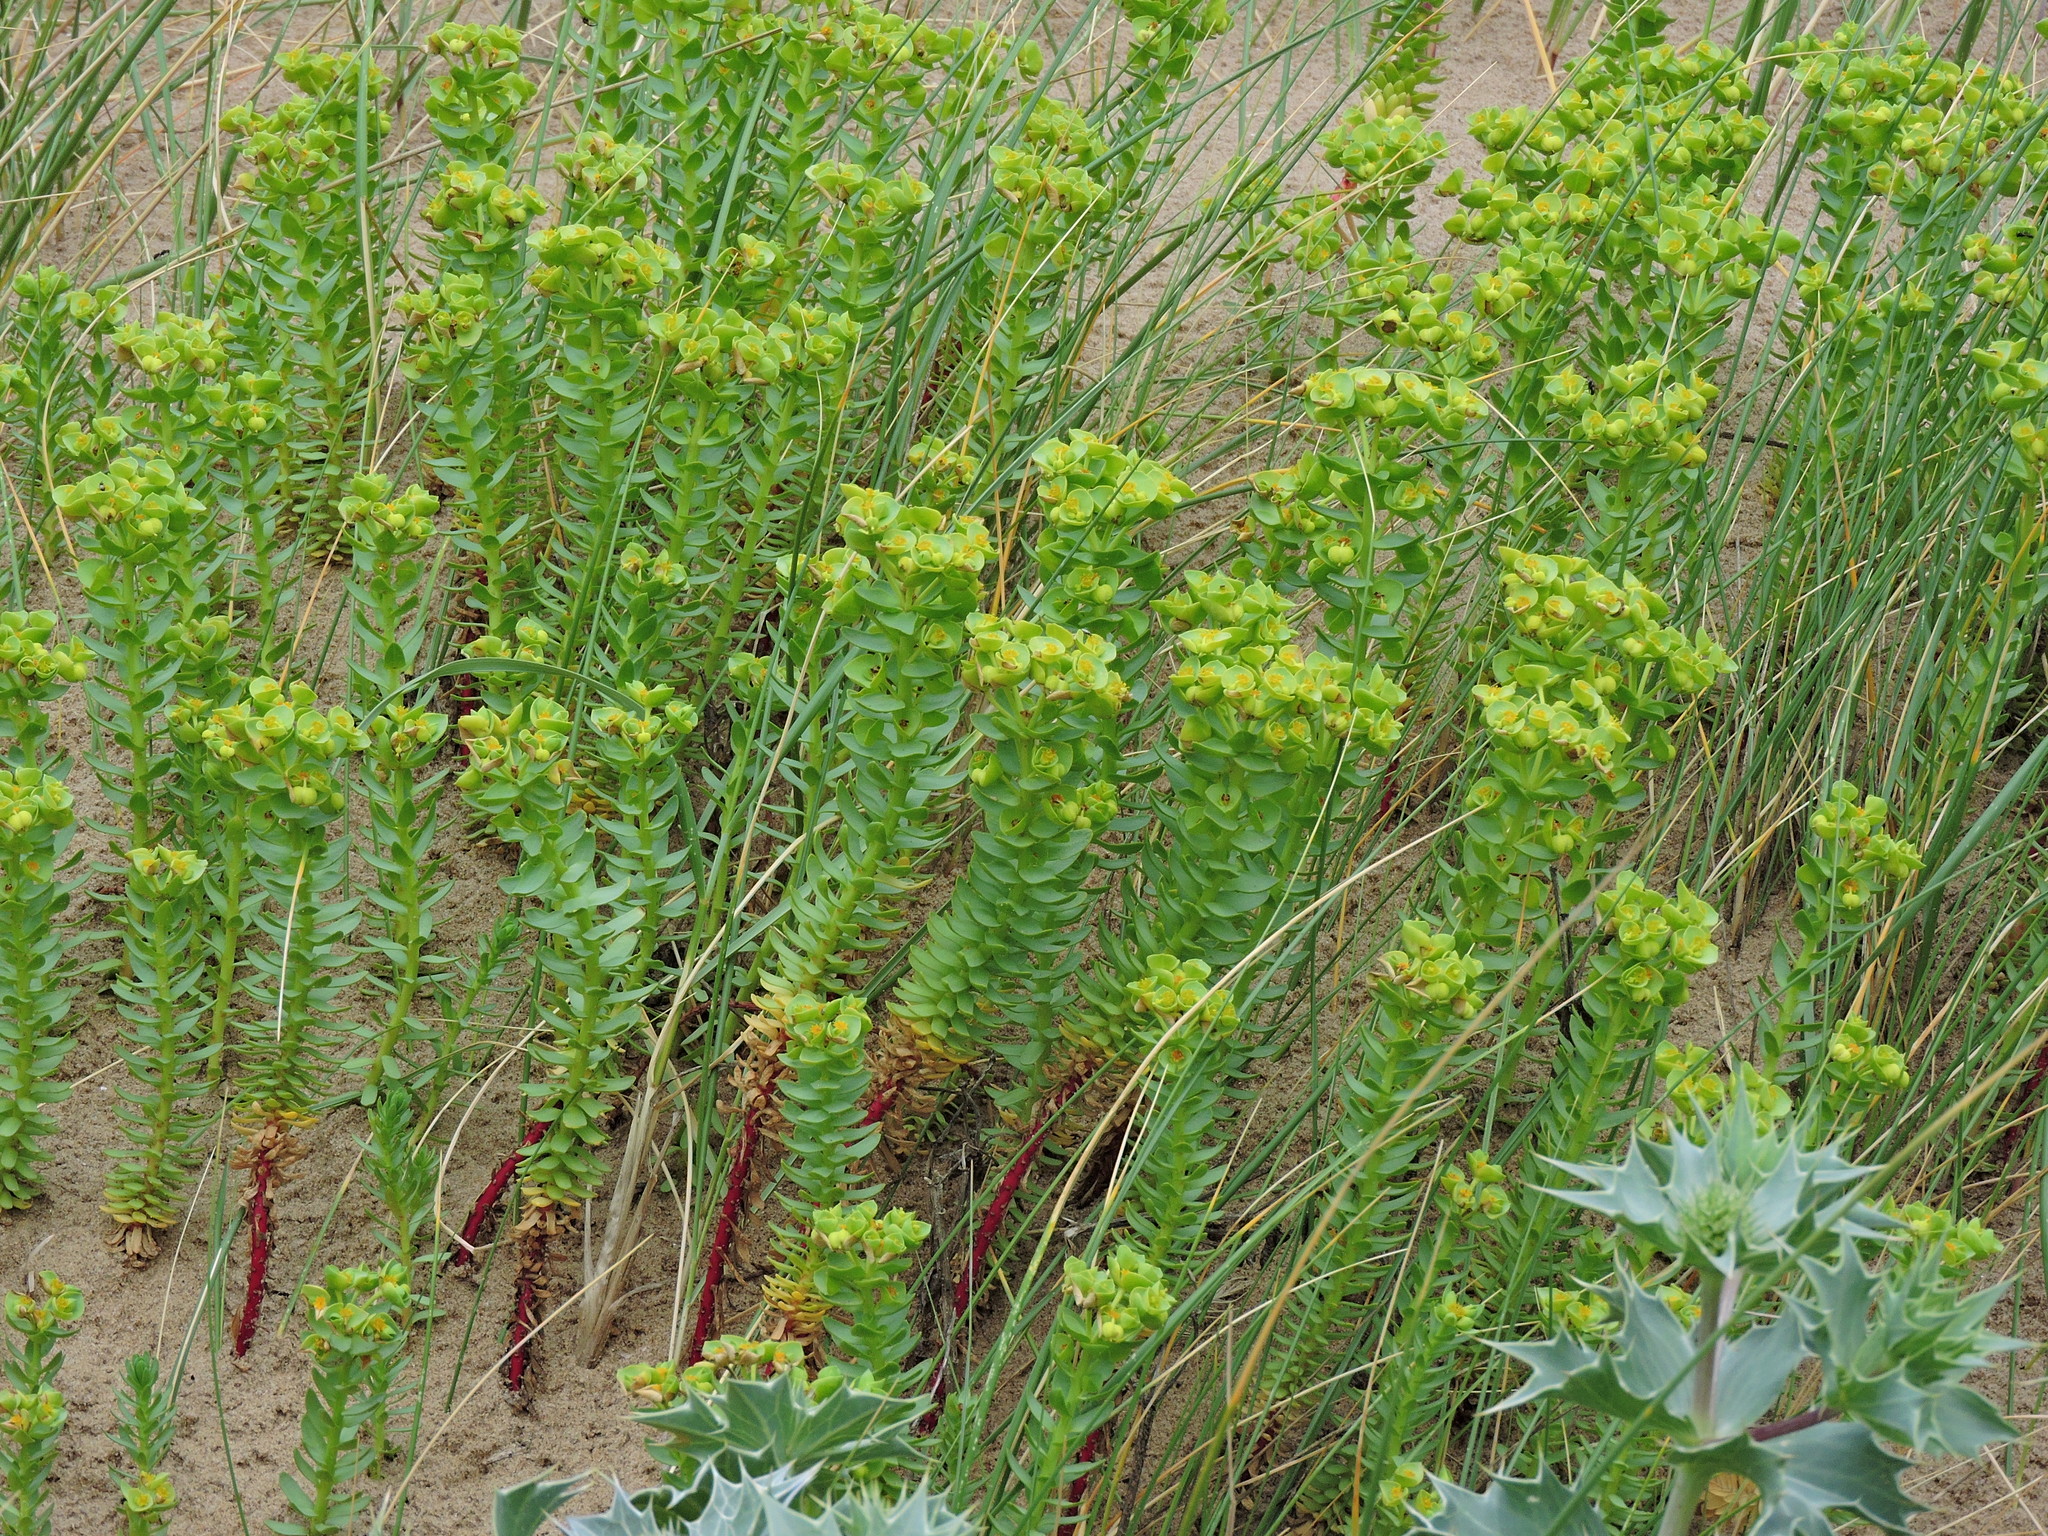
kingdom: Plantae
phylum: Tracheophyta
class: Magnoliopsida
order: Malpighiales
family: Euphorbiaceae
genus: Euphorbia
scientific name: Euphorbia paralias
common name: Sea spurge
